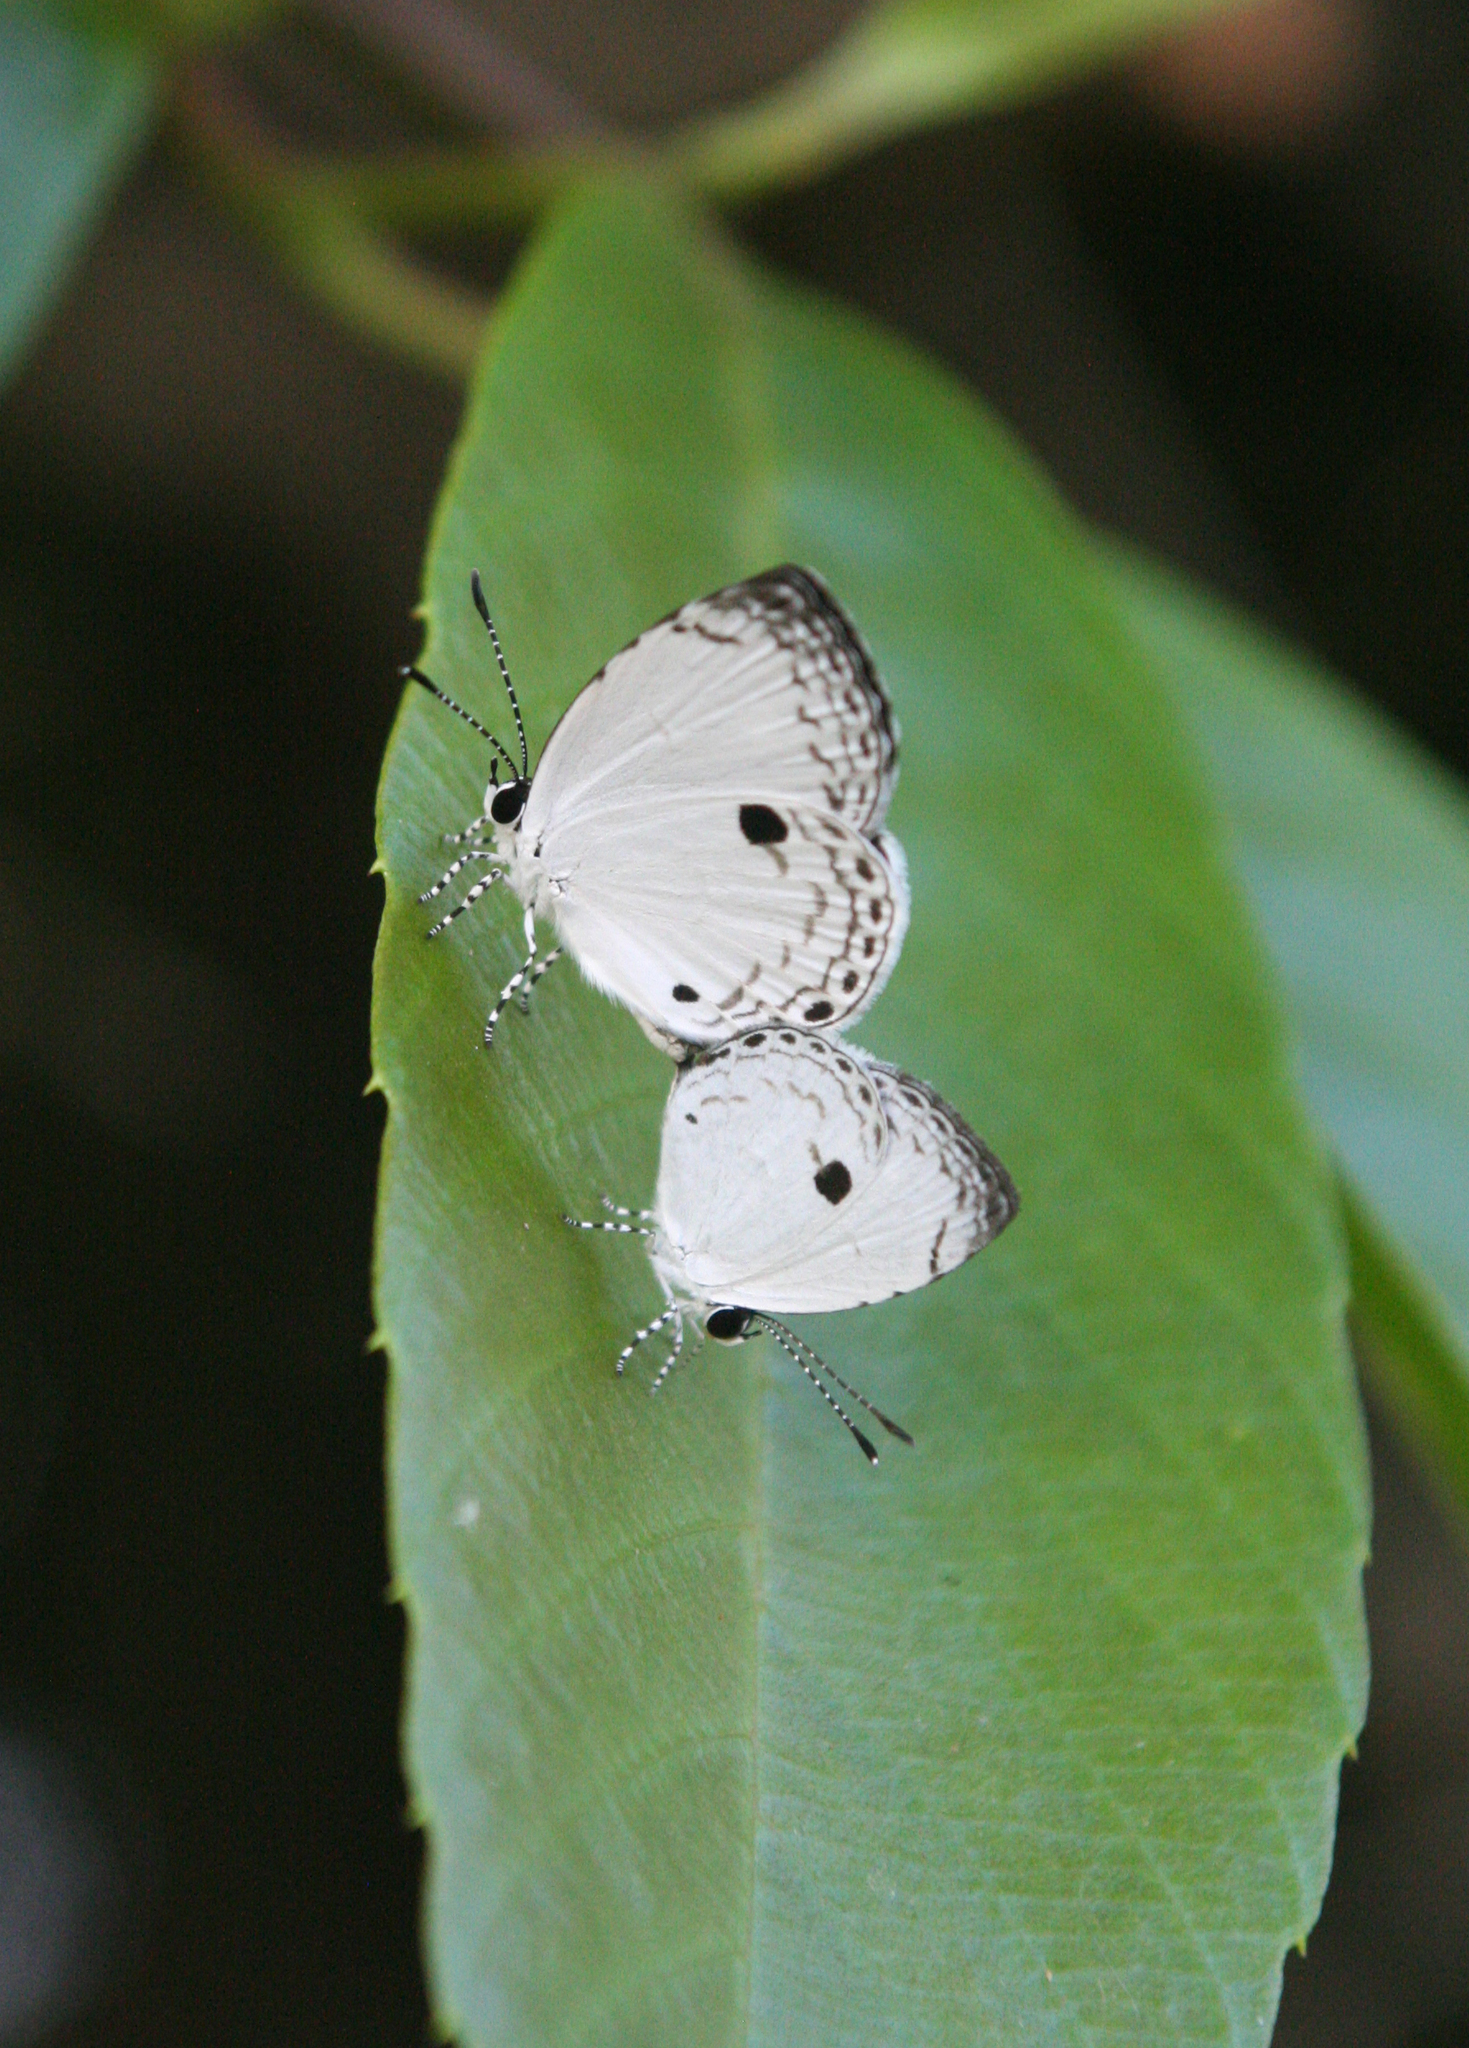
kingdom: Animalia
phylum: Arthropoda
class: Insecta
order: Lepidoptera
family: Lycaenidae
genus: Neopithecops
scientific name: Neopithecops zalmora
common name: Quaker
